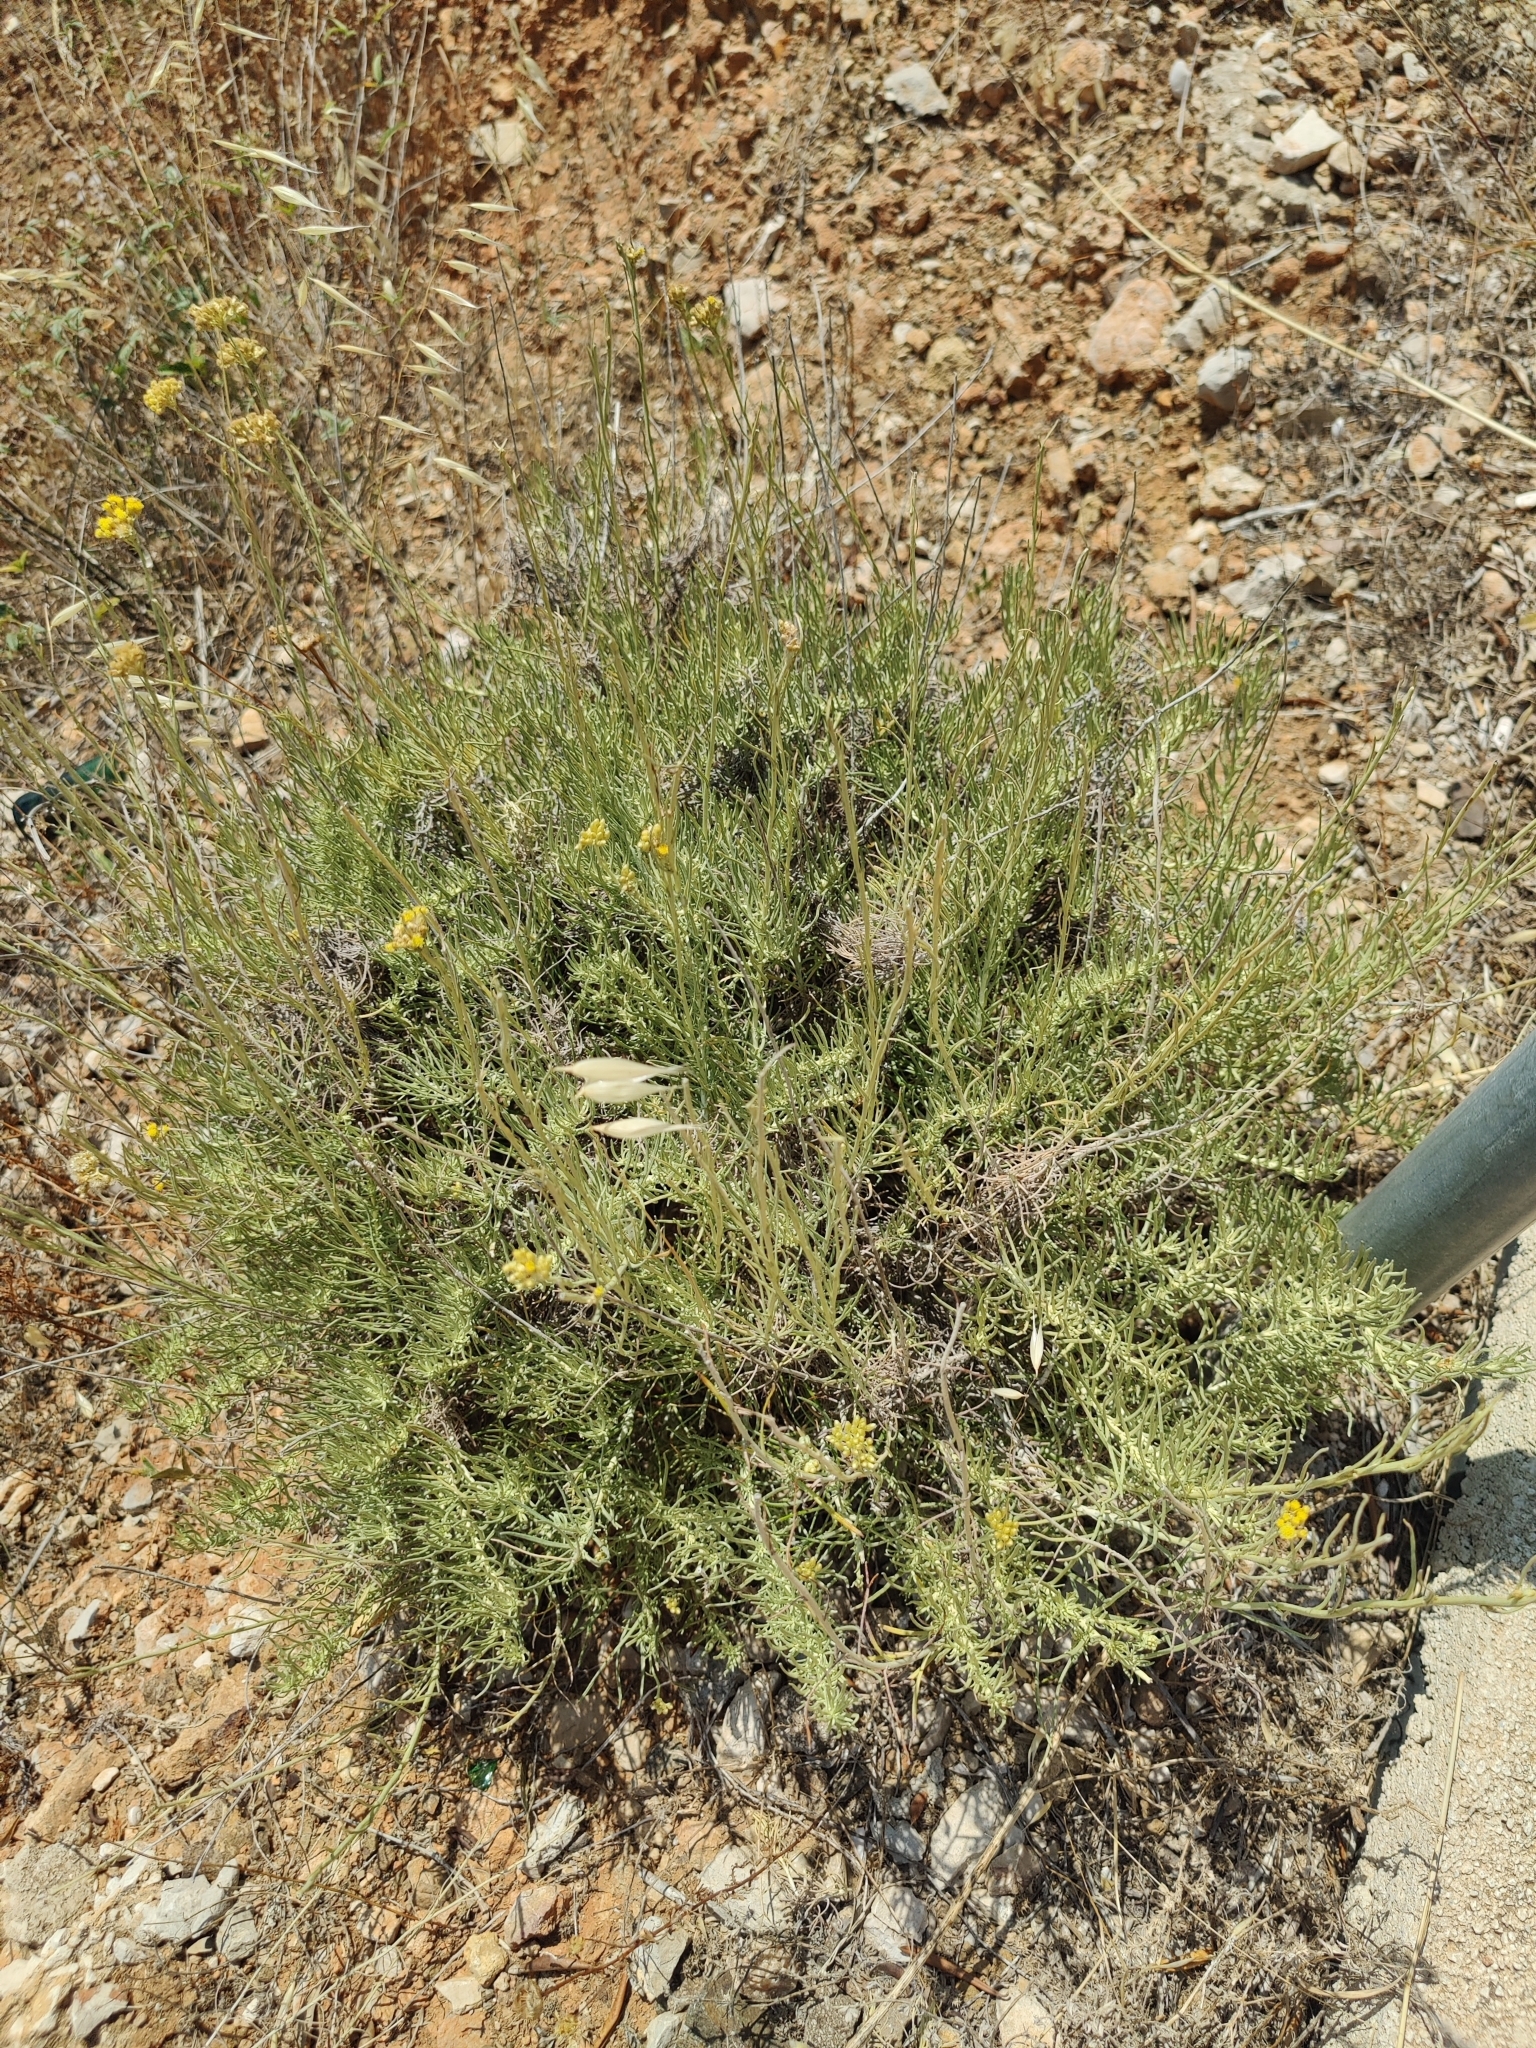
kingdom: Plantae
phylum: Tracheophyta
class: Magnoliopsida
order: Asterales
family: Asteraceae
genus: Helichrysum
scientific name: Helichrysum italicum
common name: Curryplant
